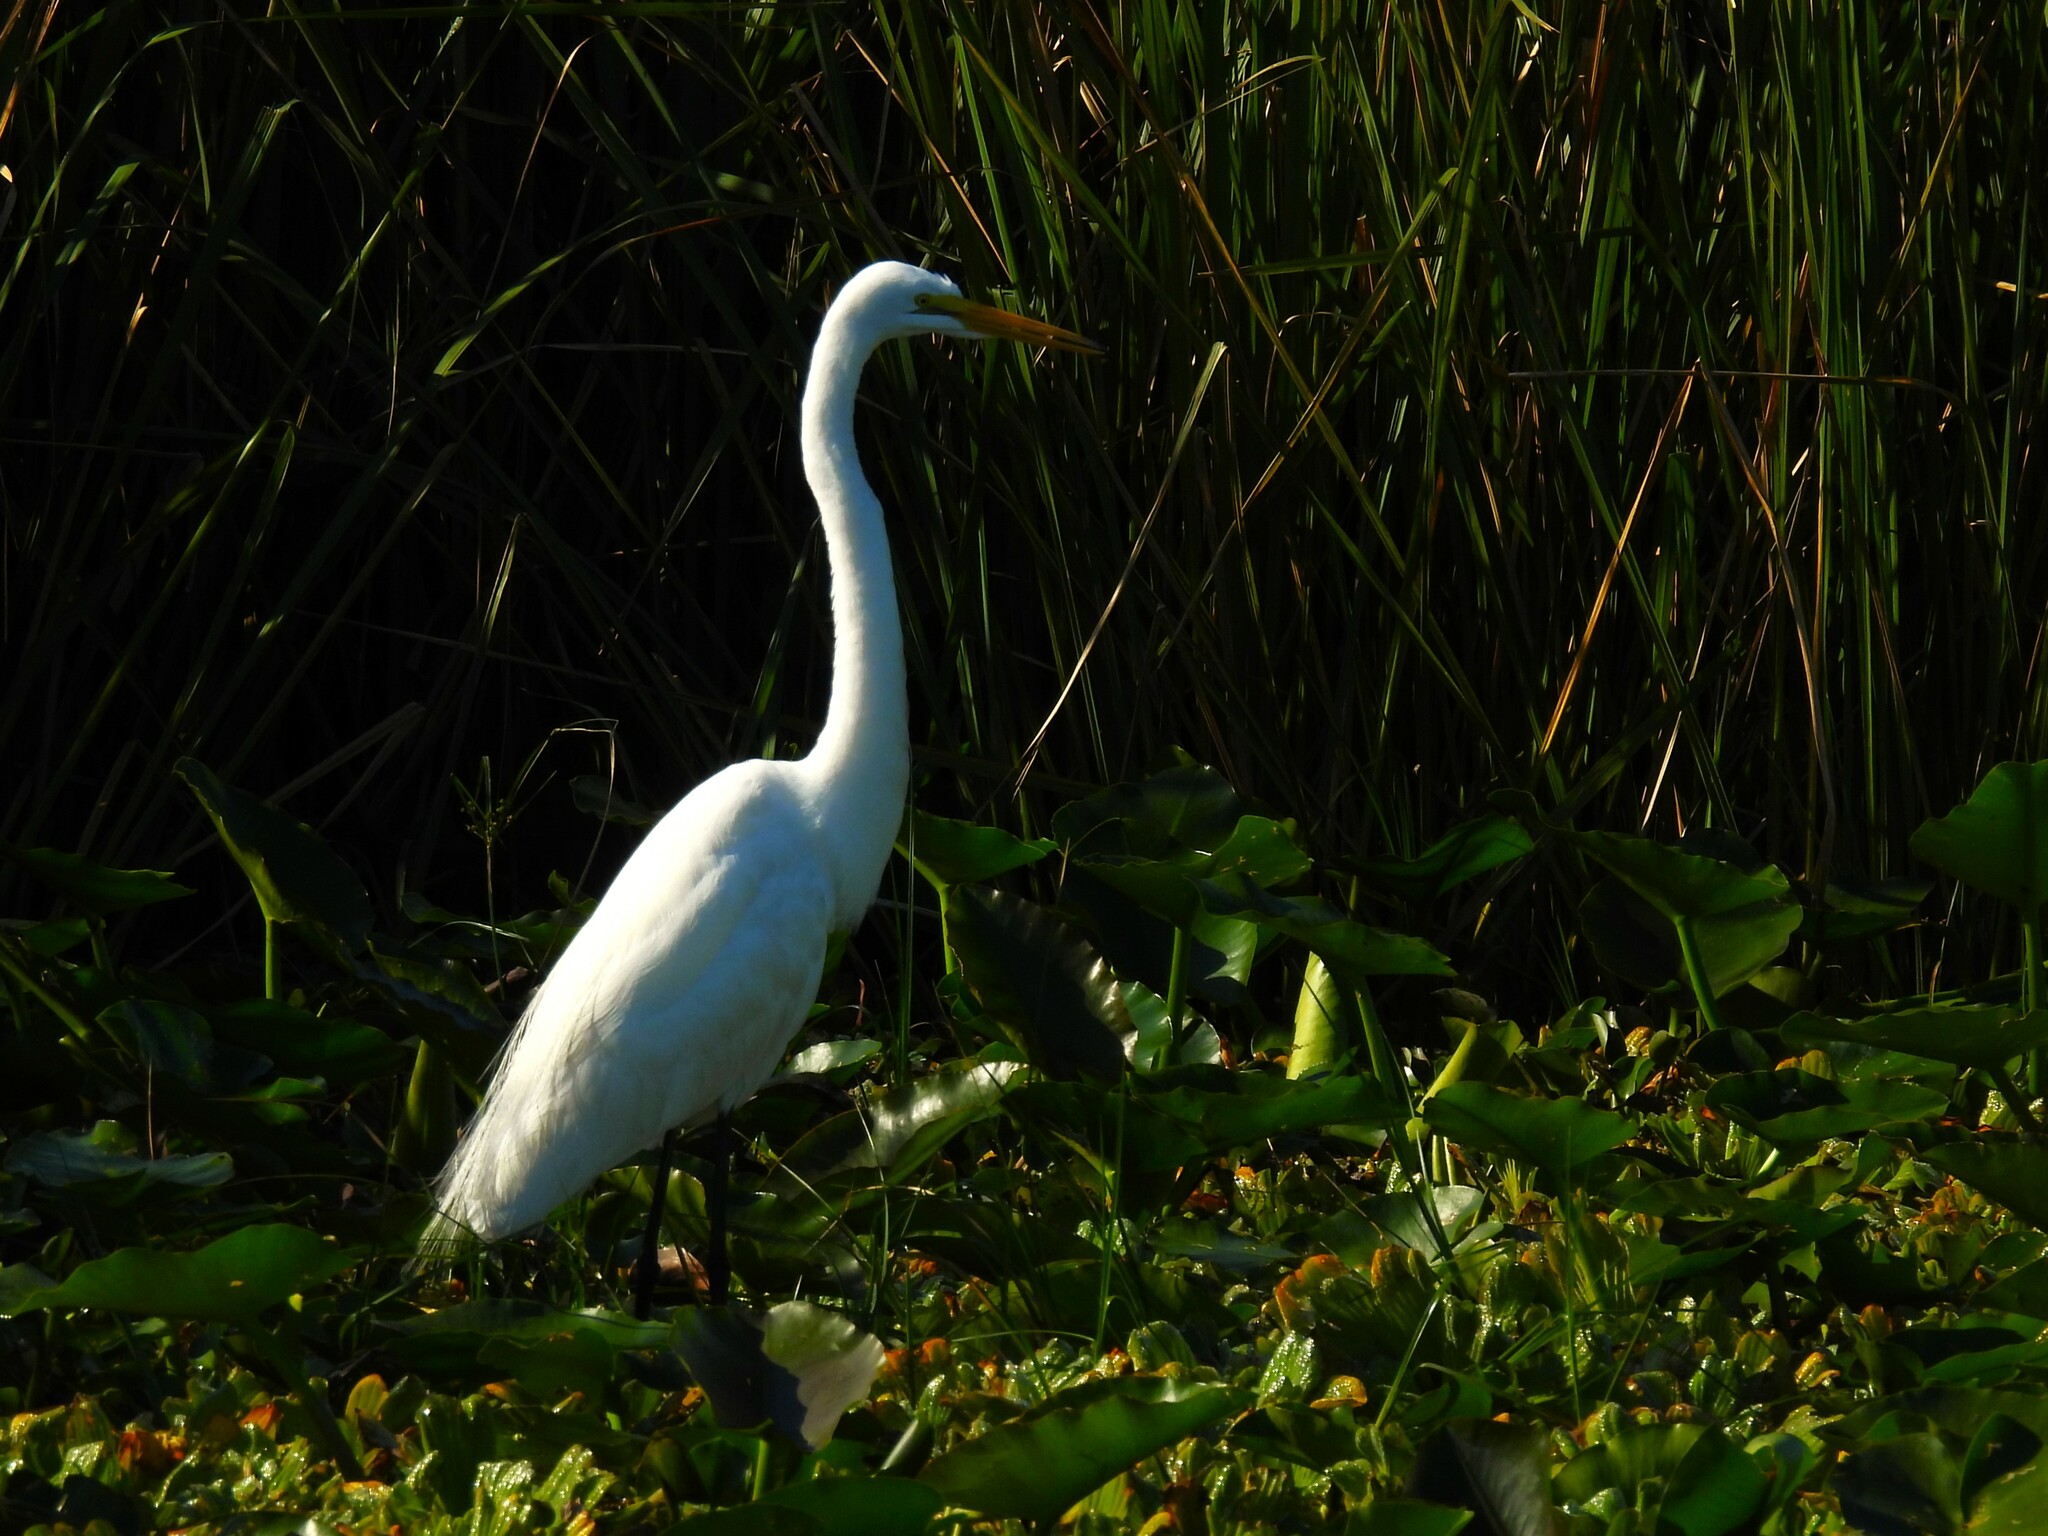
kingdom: Animalia
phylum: Chordata
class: Aves
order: Pelecaniformes
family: Ardeidae
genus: Ardea
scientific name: Ardea alba
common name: Great egret
